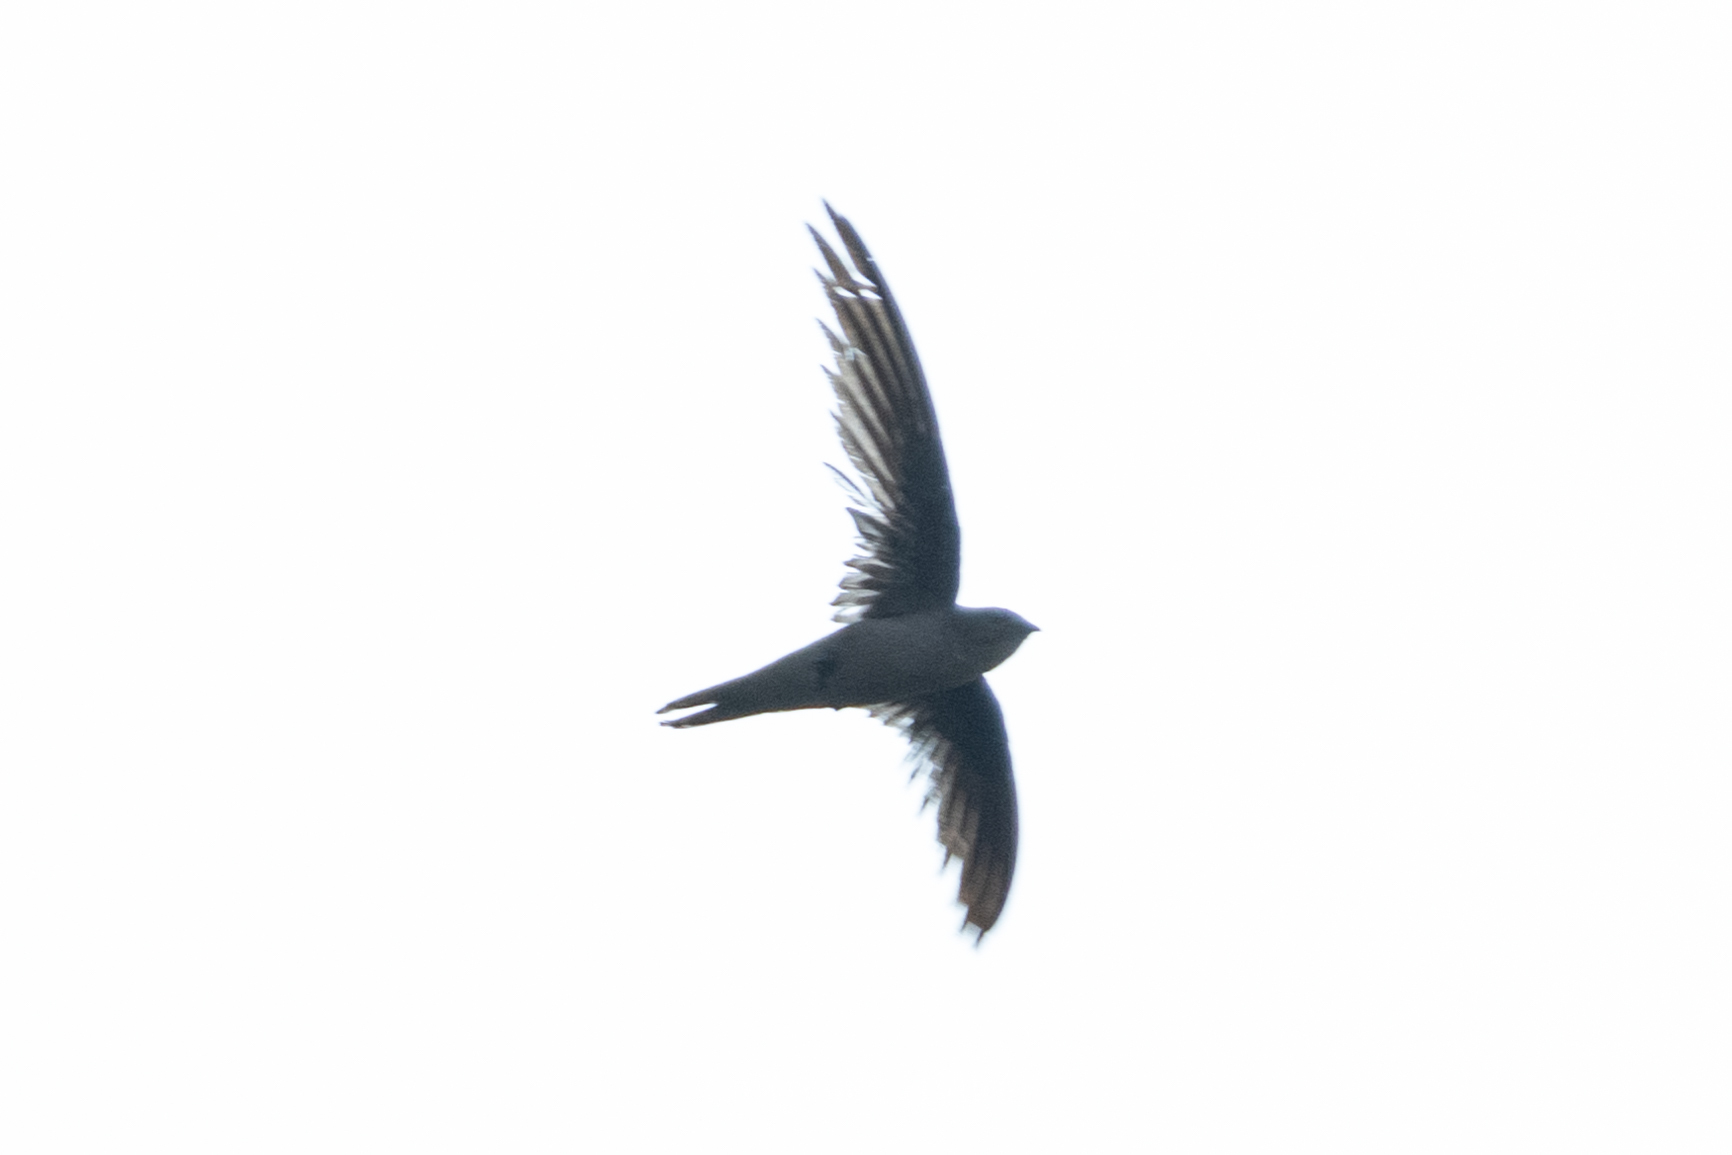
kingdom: Animalia
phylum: Chordata
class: Aves
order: Apodiformes
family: Apodidae
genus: Cypsiurus
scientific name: Cypsiurus balasiensis
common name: Asian palm swift
